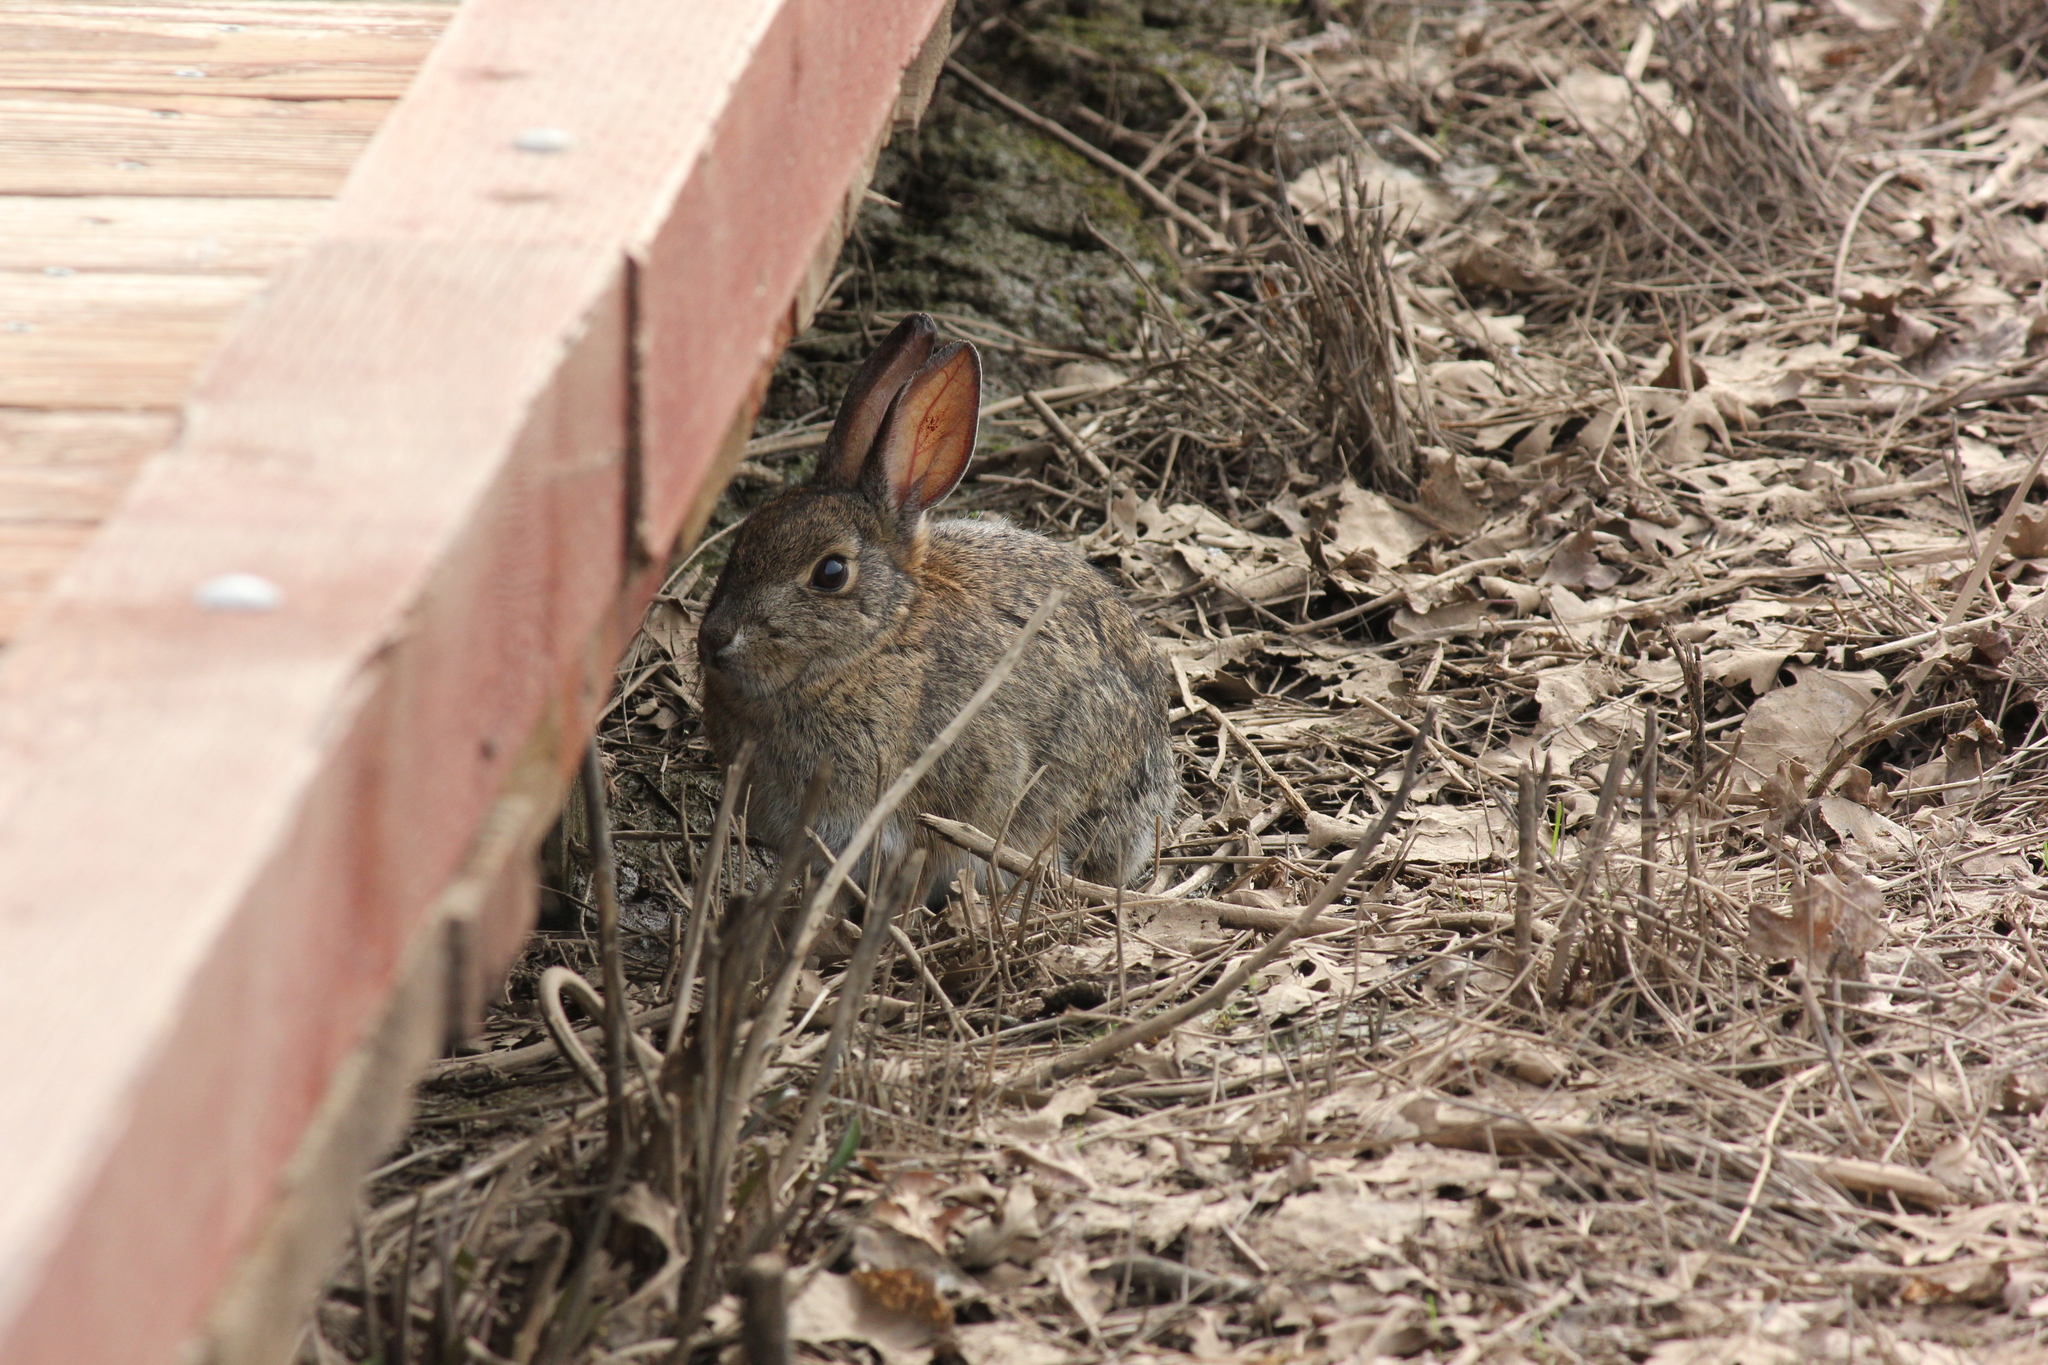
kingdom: Animalia
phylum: Chordata
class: Mammalia
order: Lagomorpha
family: Leporidae
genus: Sylvilagus
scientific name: Sylvilagus bachmani
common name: Brush rabbit
